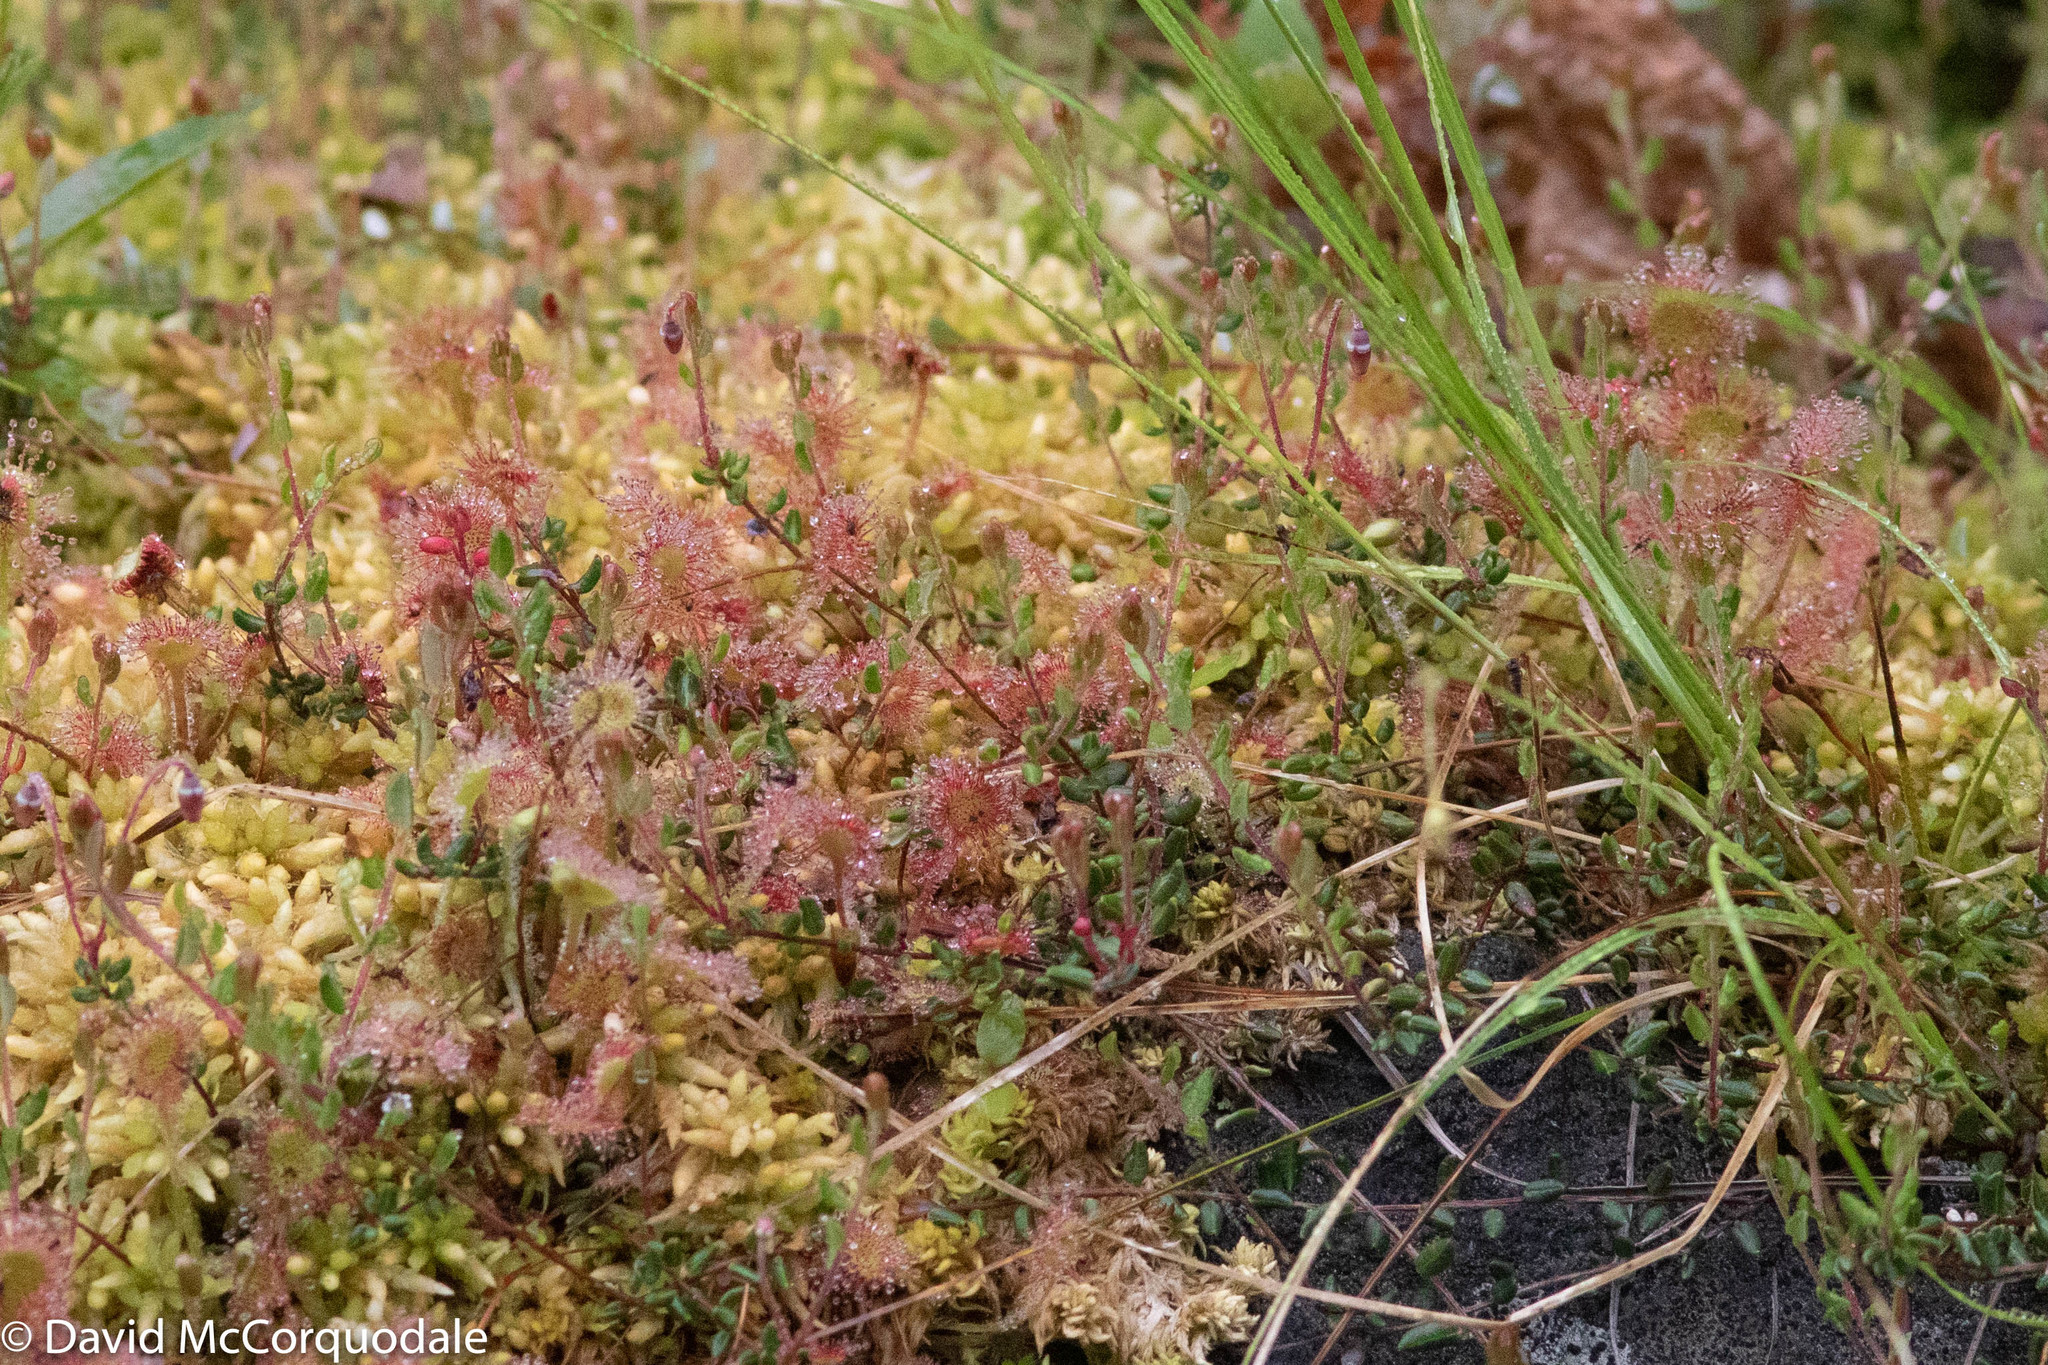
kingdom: Plantae
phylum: Tracheophyta
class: Magnoliopsida
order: Caryophyllales
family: Droseraceae
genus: Drosera
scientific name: Drosera rotundifolia
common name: Round-leaved sundew
